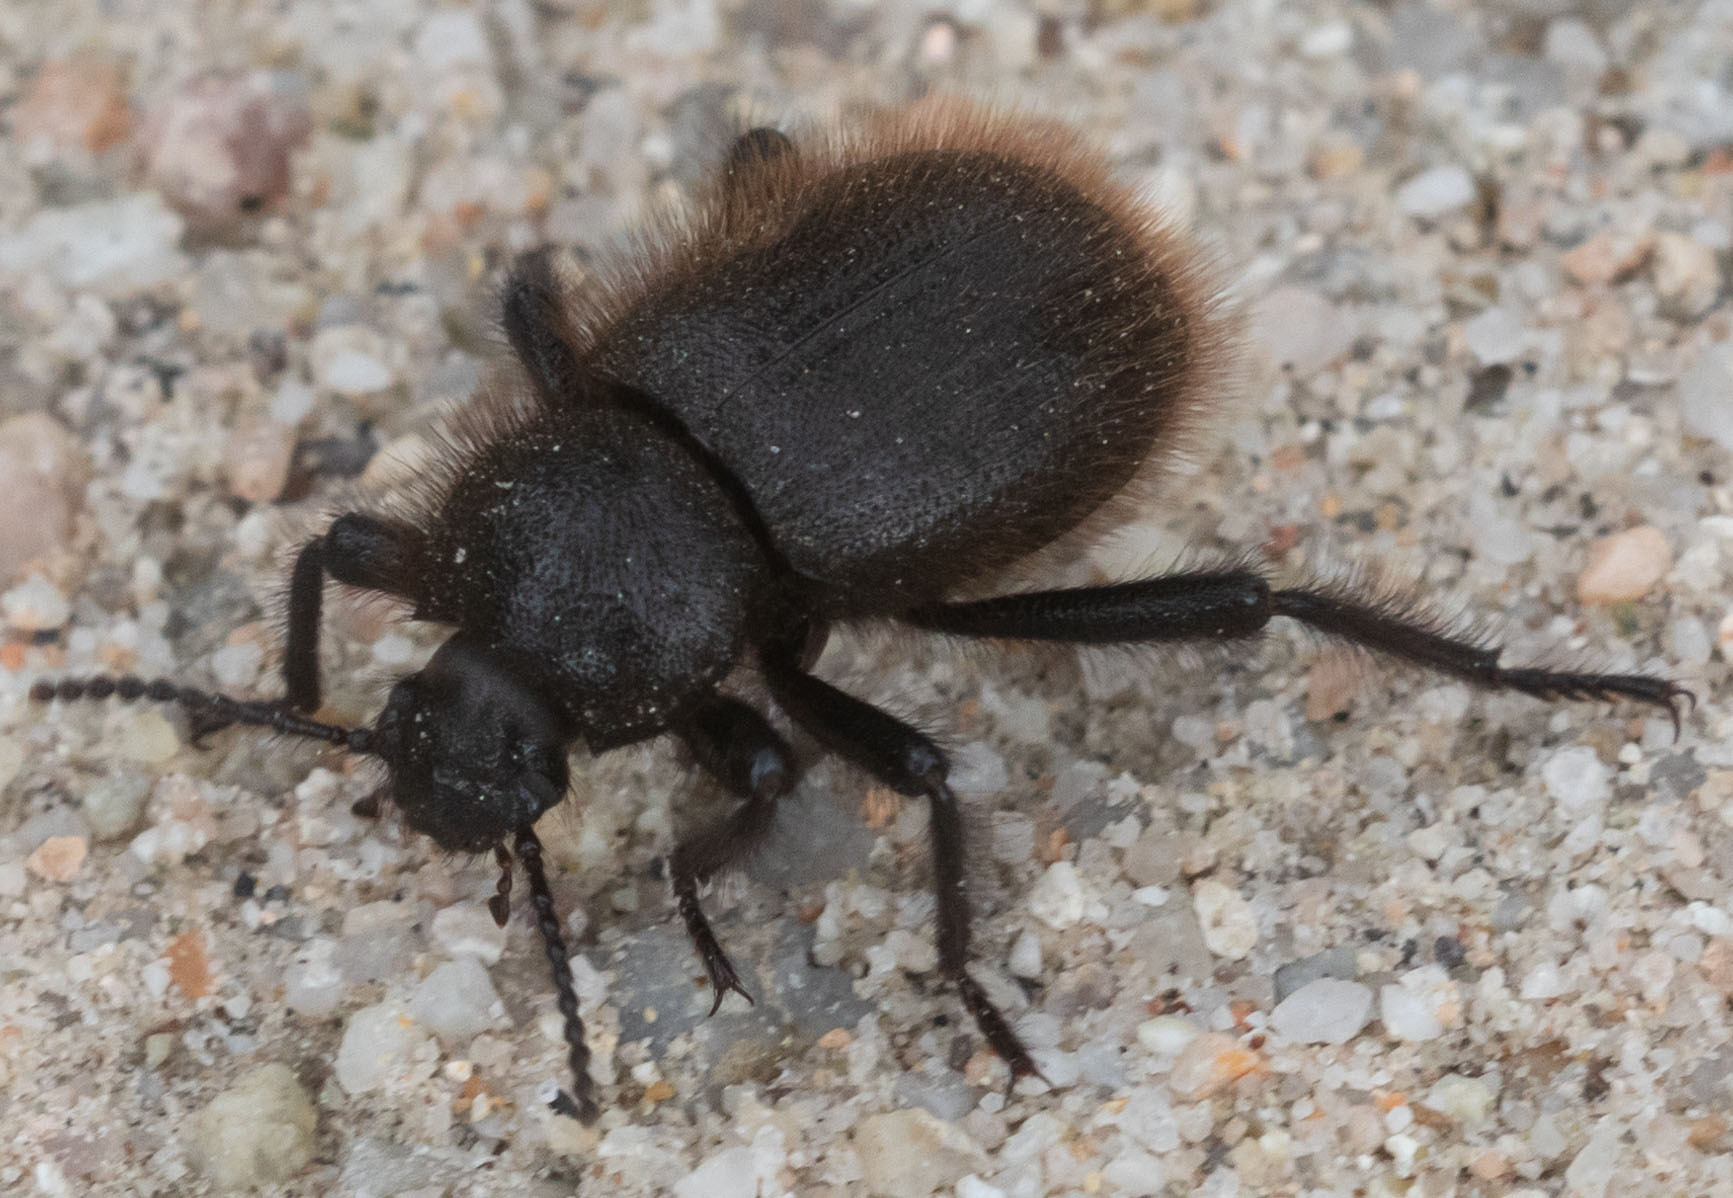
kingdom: Animalia
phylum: Arthropoda
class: Insecta
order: Coleoptera
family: Tenebrionidae
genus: Eleodes
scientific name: Eleodes osculans
